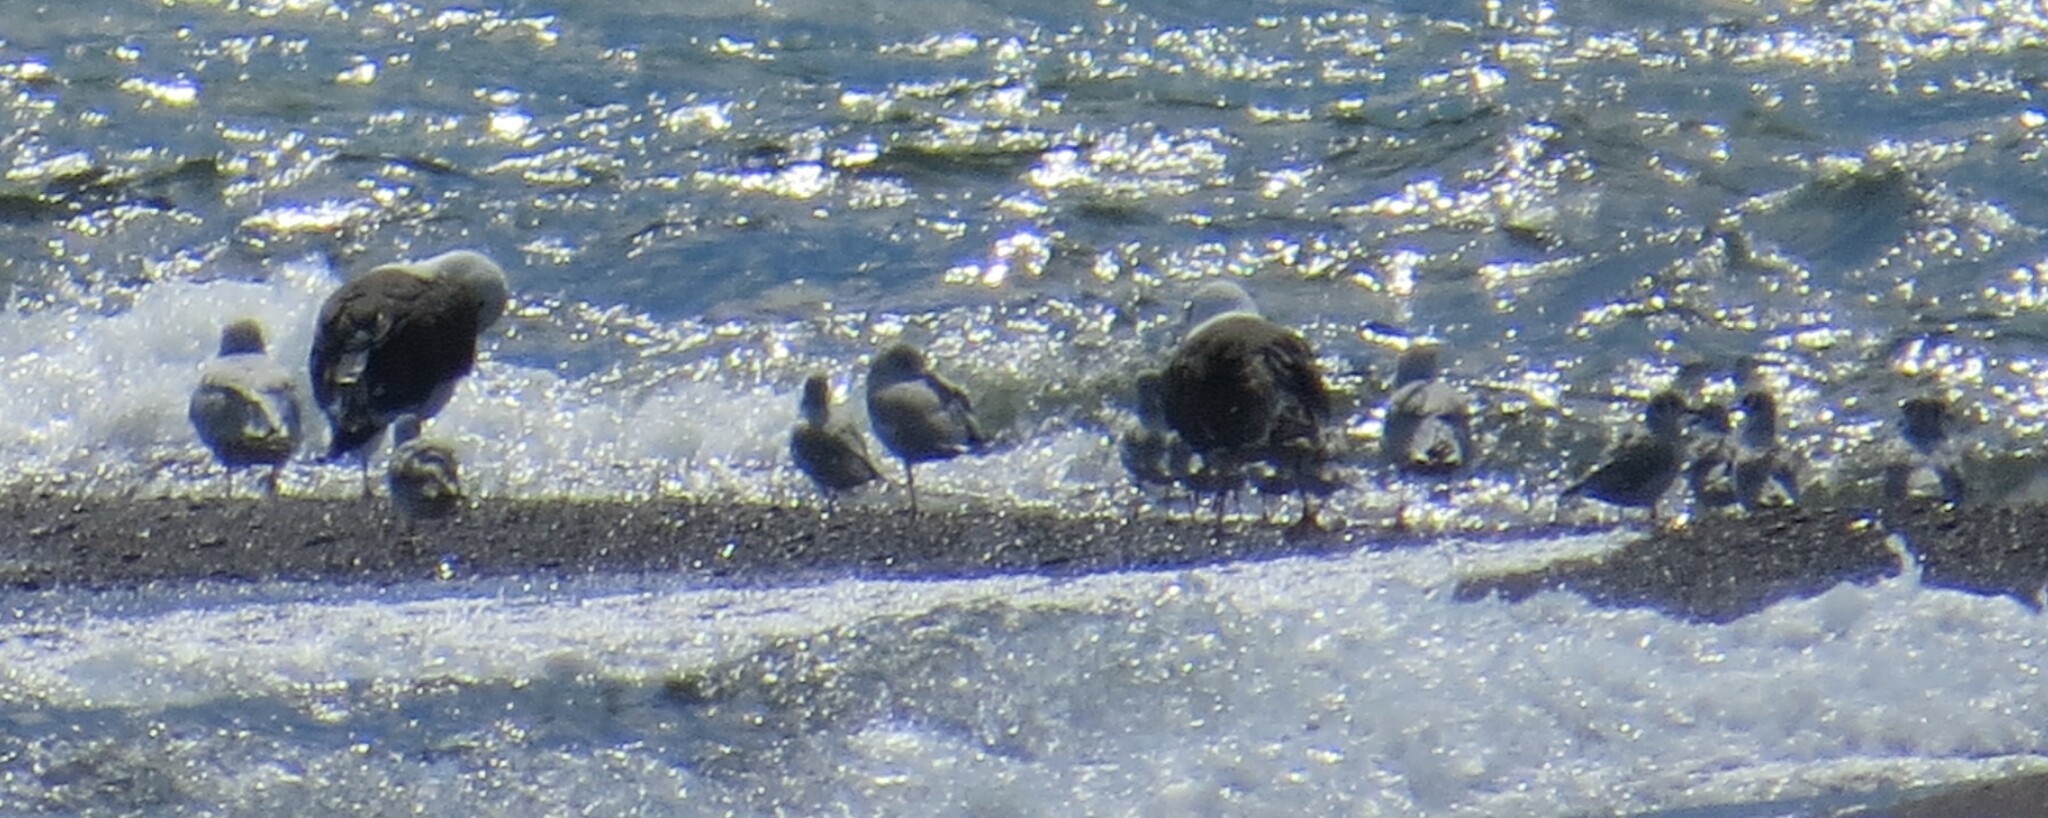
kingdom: Animalia
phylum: Chordata
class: Aves
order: Charadriiformes
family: Laridae
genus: Larus
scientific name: Larus marinus
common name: Great black-backed gull
